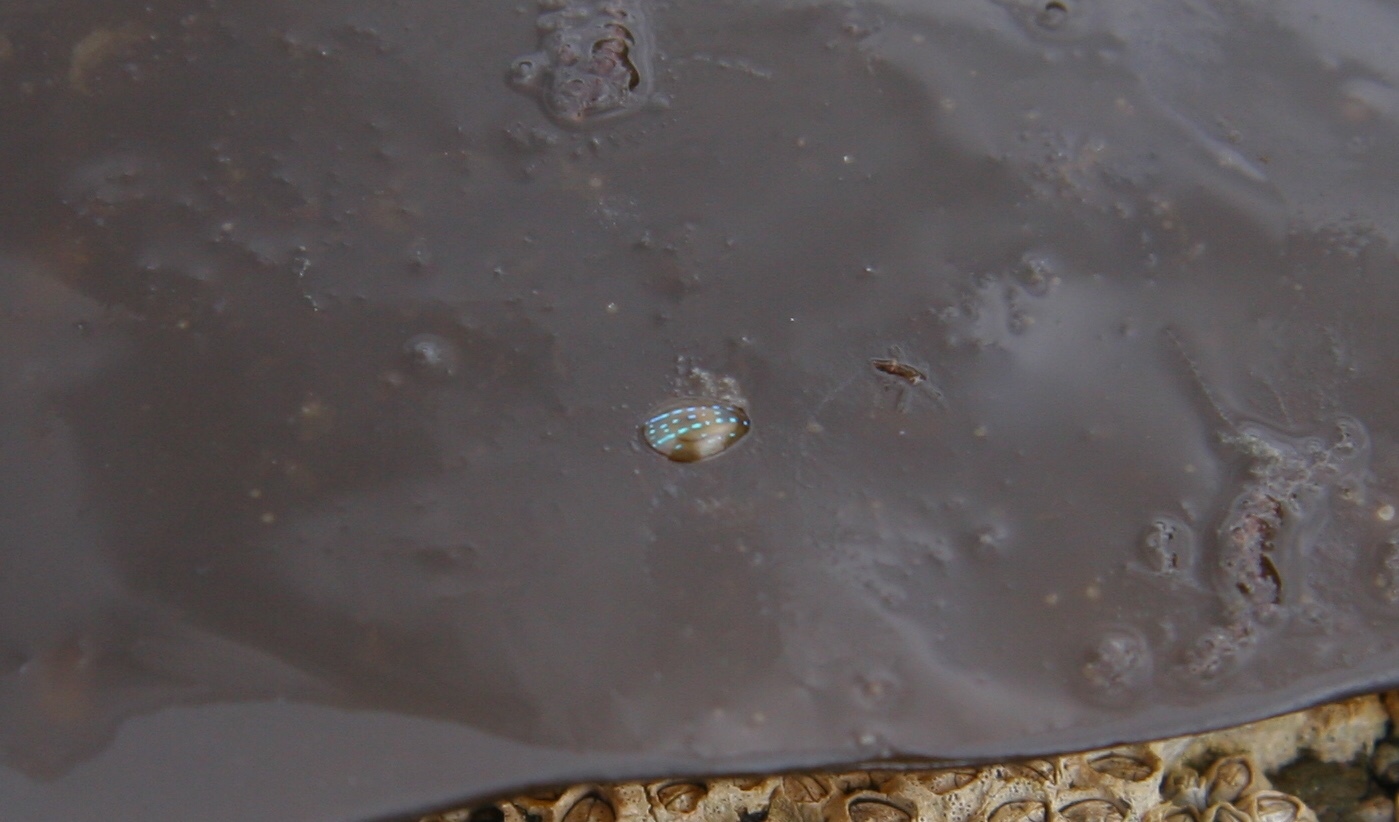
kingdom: Animalia
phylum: Mollusca
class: Gastropoda
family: Patellidae
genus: Patella
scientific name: Patella pellucida
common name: Blue-rayed limpet
